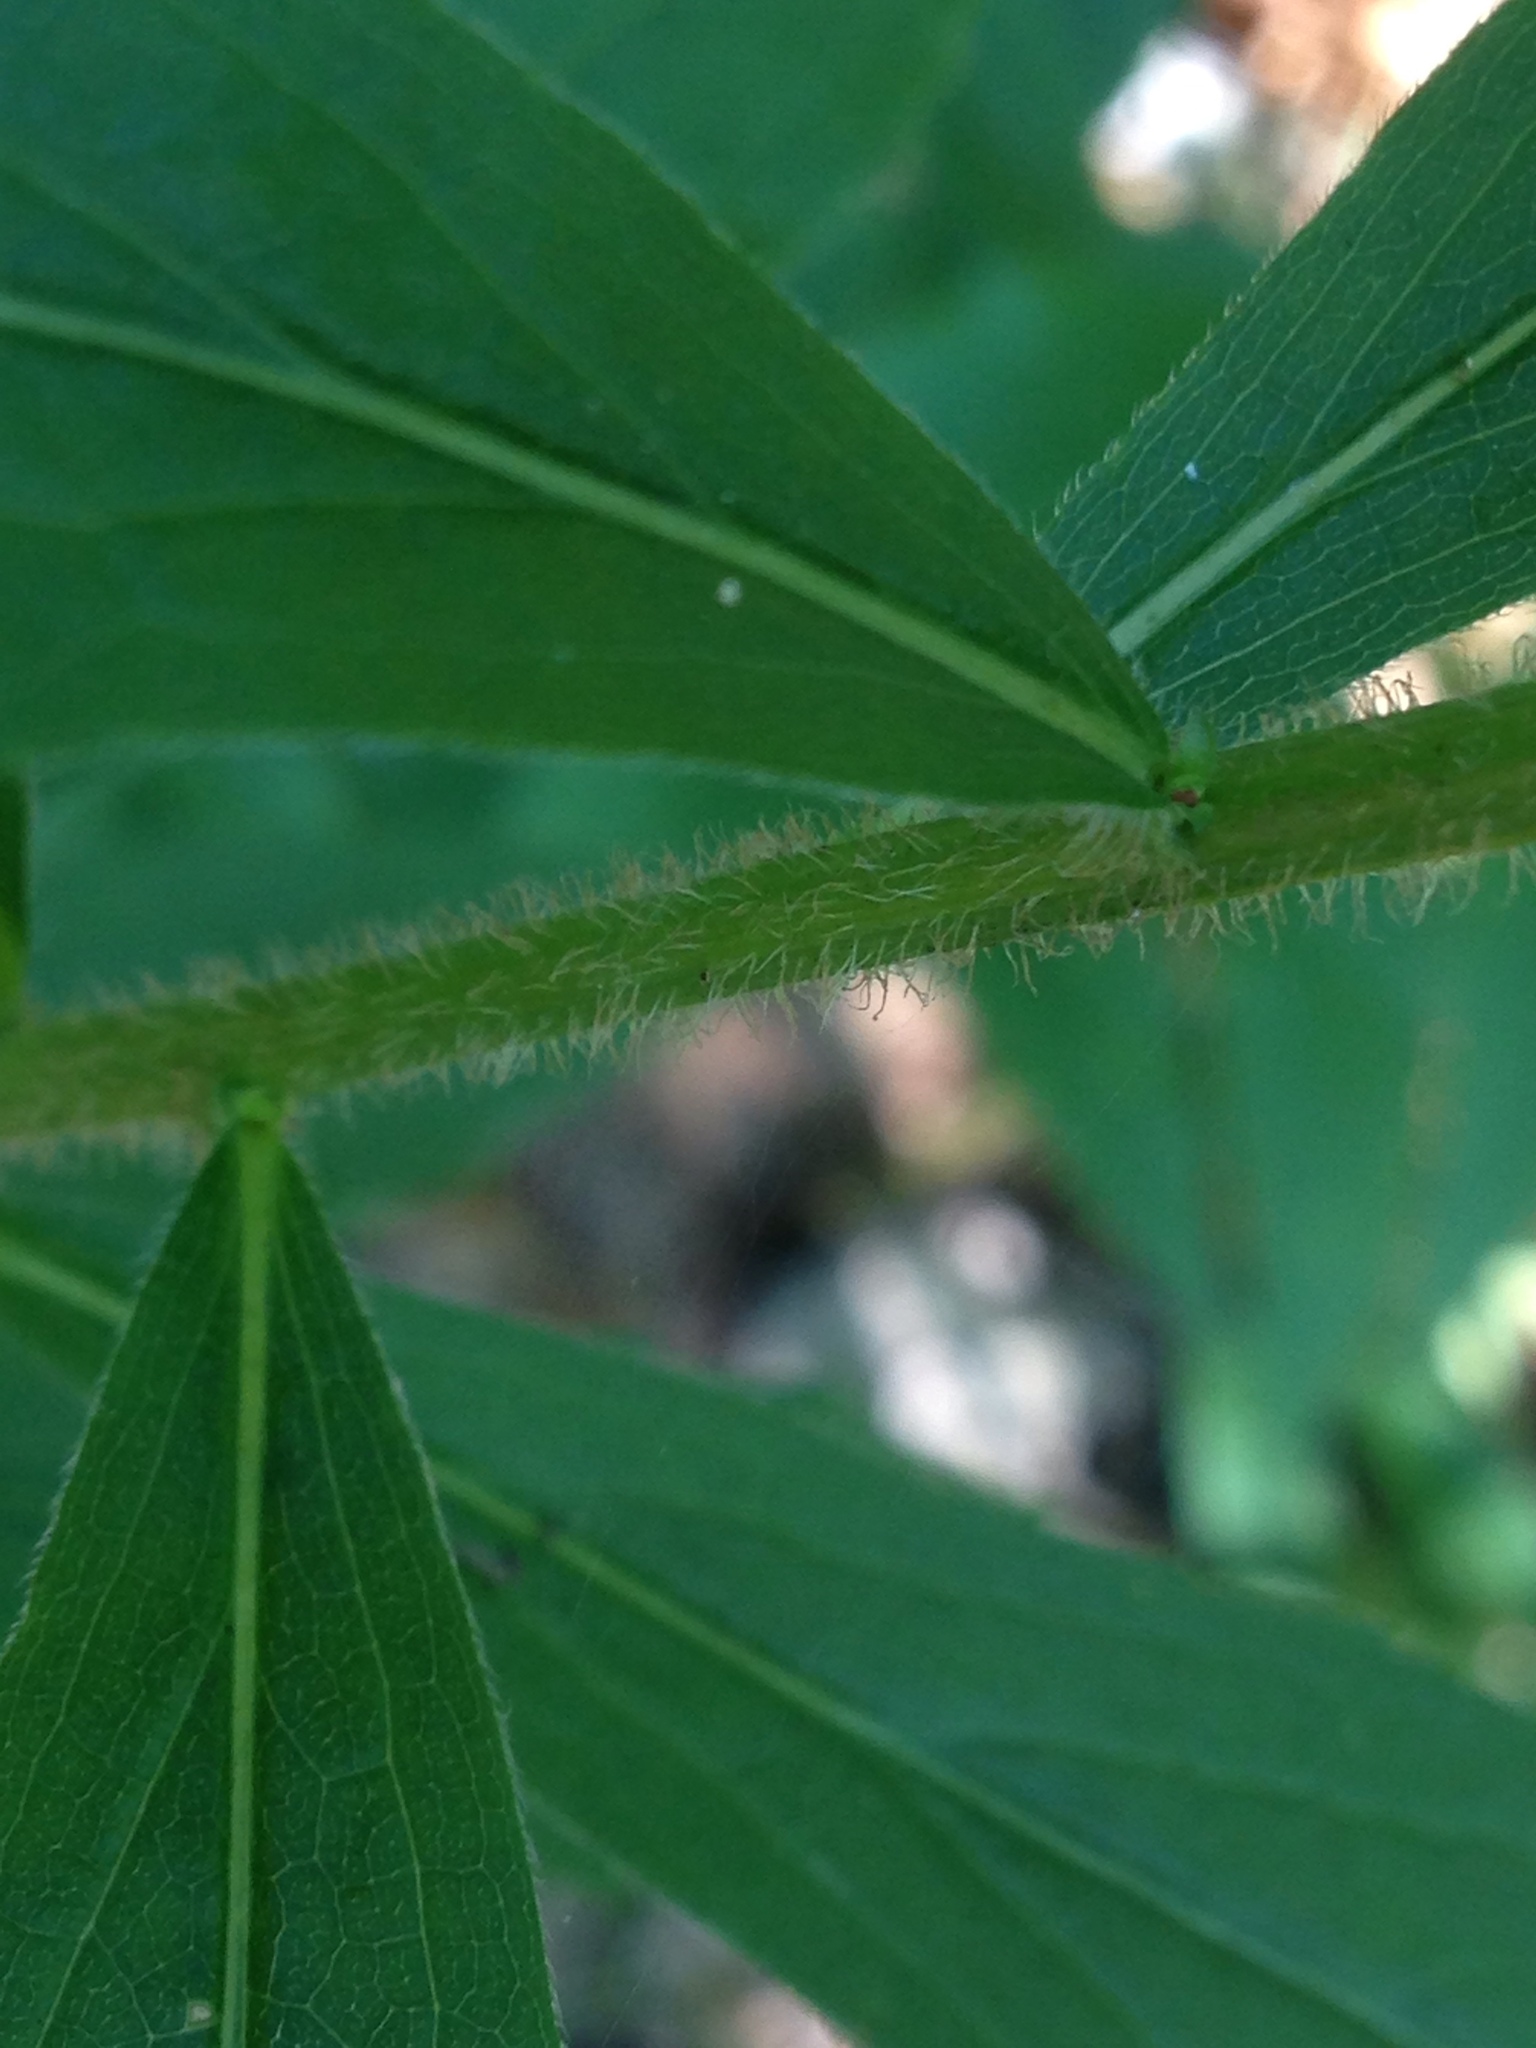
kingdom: Plantae
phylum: Tracheophyta
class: Magnoliopsida
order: Asterales
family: Asteraceae
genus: Solidago
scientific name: Solidago rugosa
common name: Rough-stemmed goldenrod
